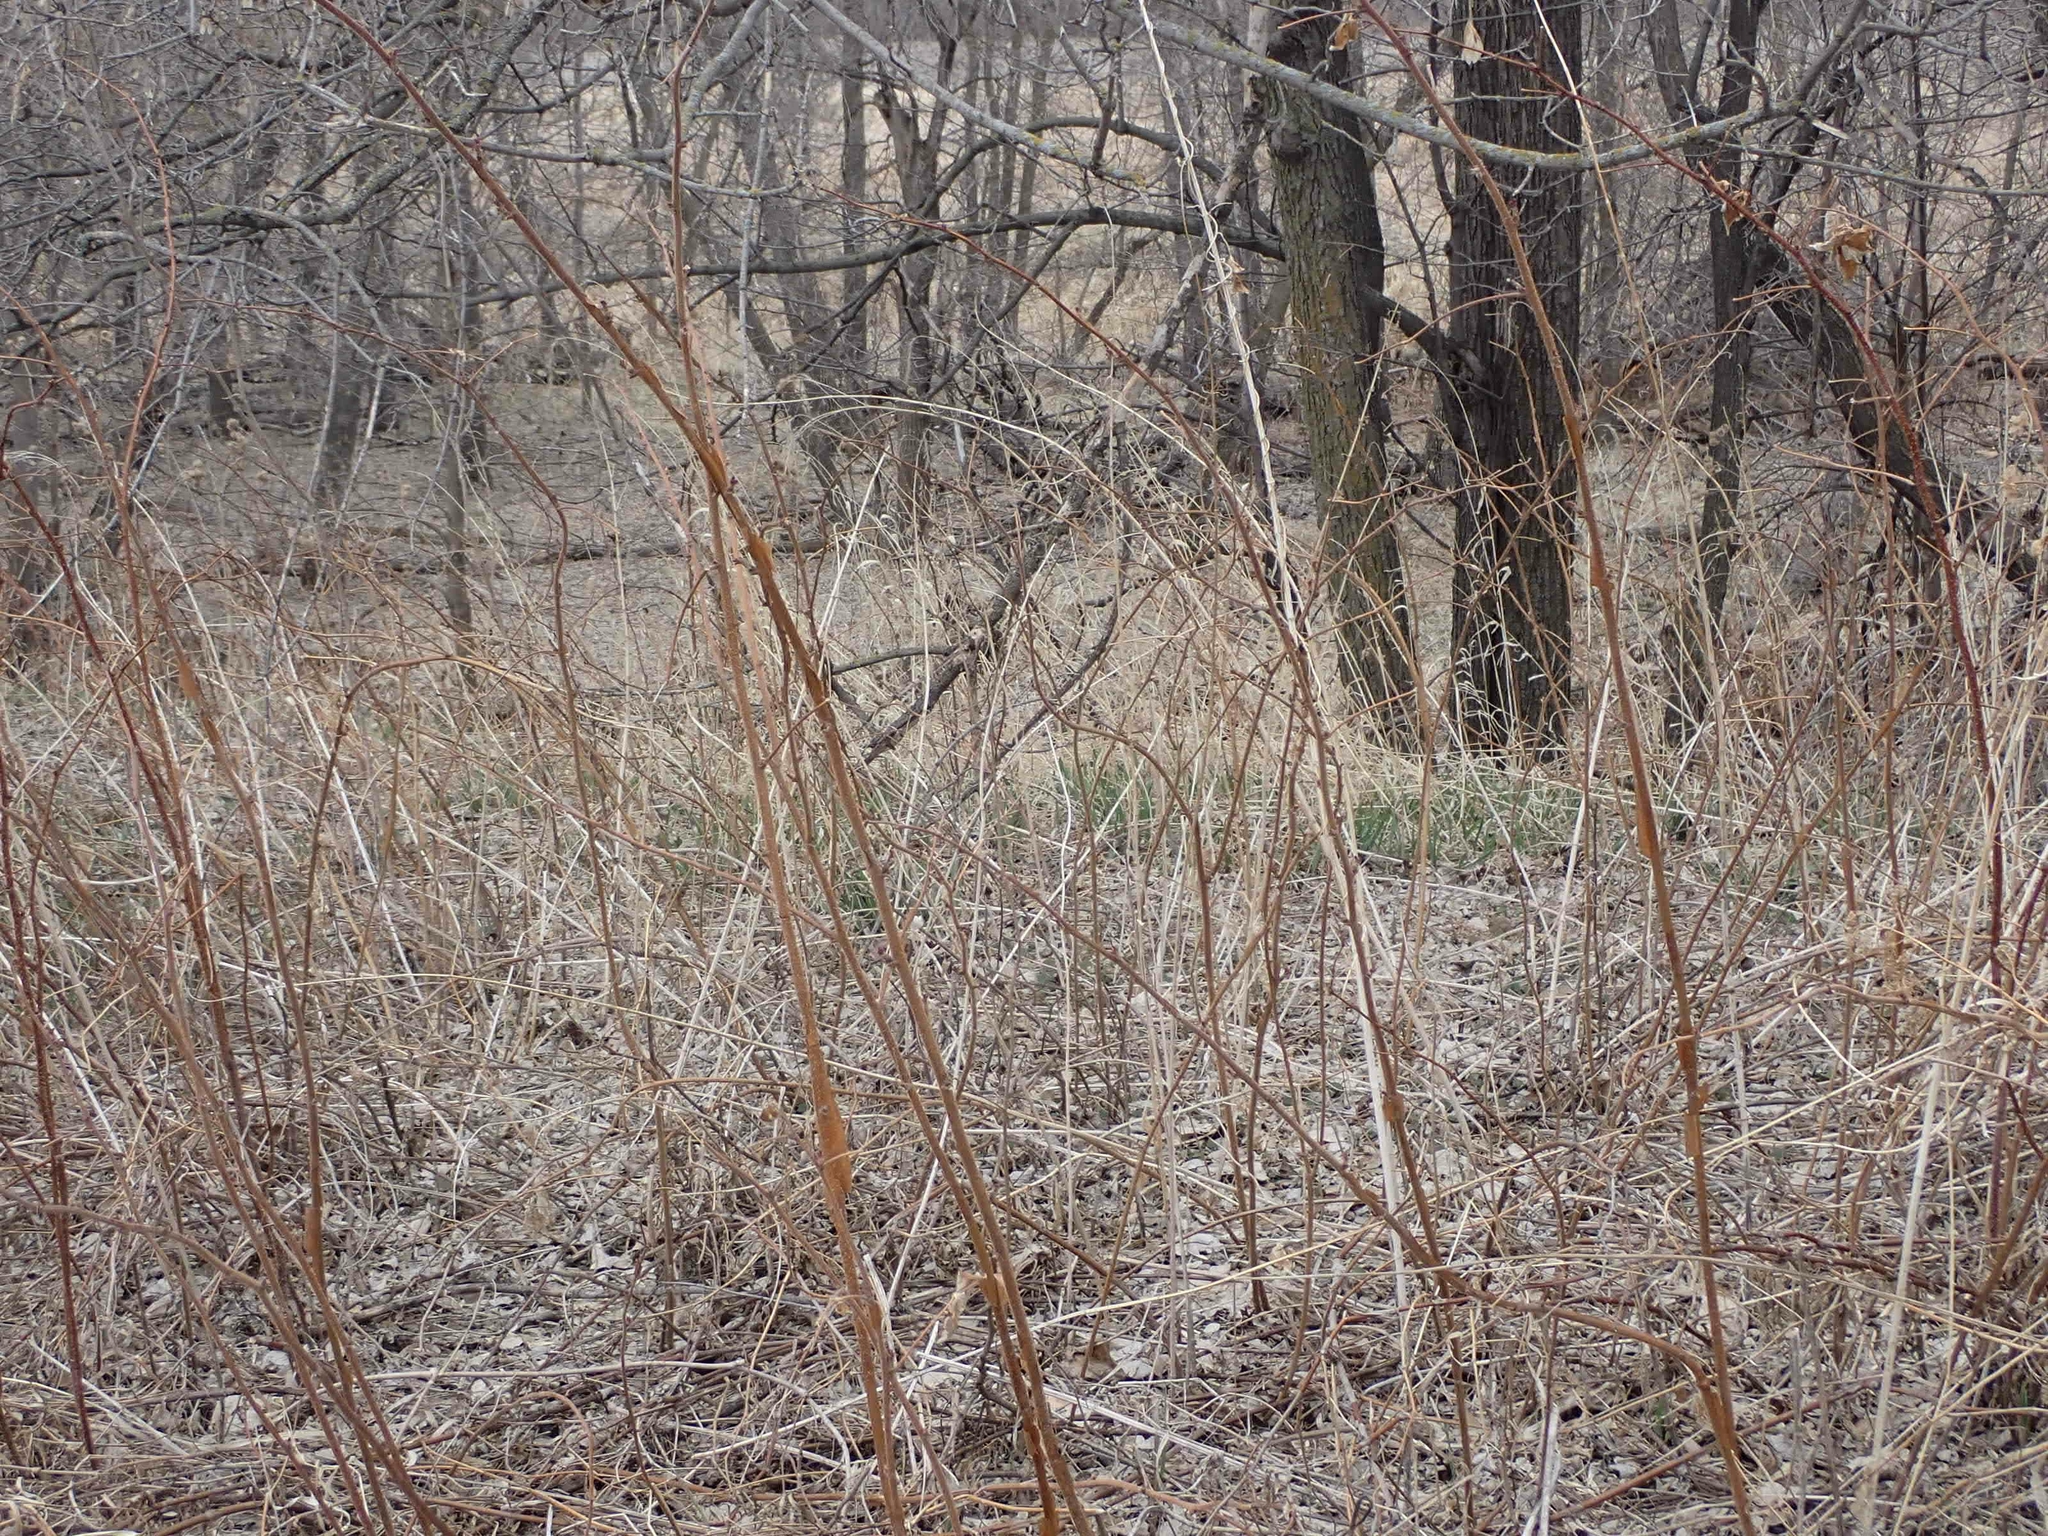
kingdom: Plantae
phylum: Tracheophyta
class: Magnoliopsida
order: Rosales
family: Rosaceae
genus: Rubus
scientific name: Rubus idaeus
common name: Raspberry
